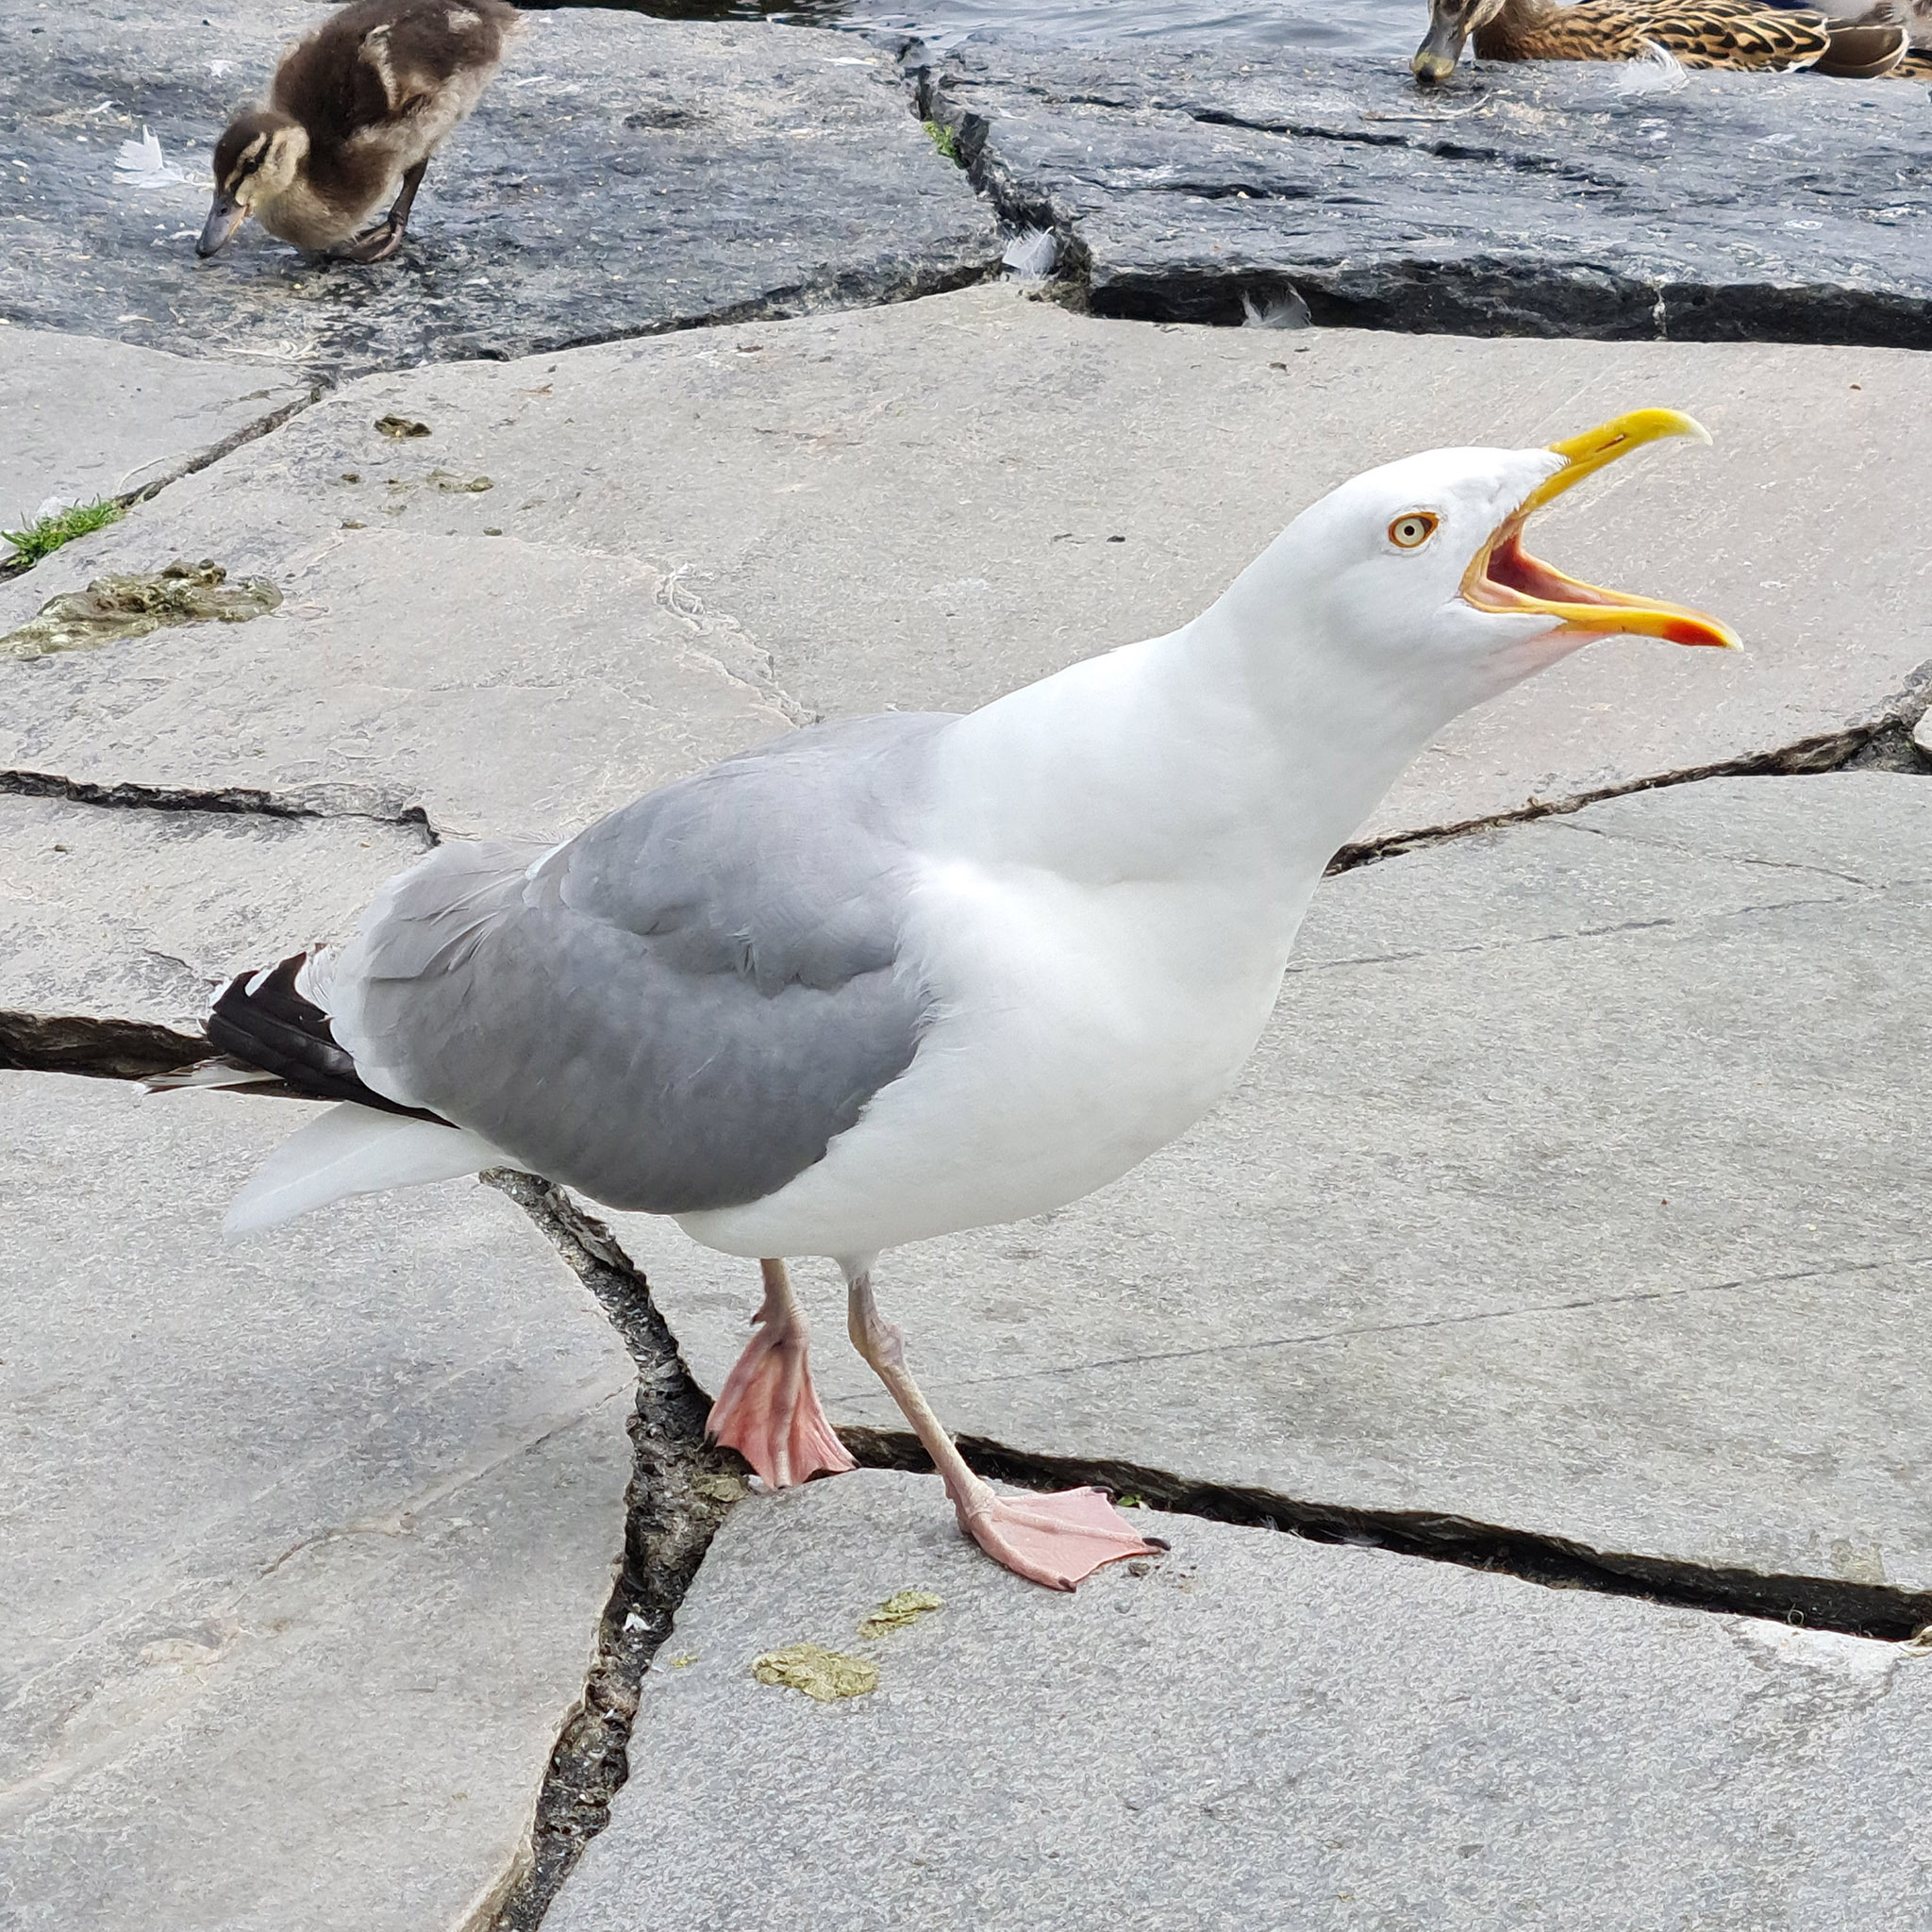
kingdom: Animalia
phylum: Chordata
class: Aves
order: Charadriiformes
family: Laridae
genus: Larus
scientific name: Larus argentatus
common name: Herring gull
